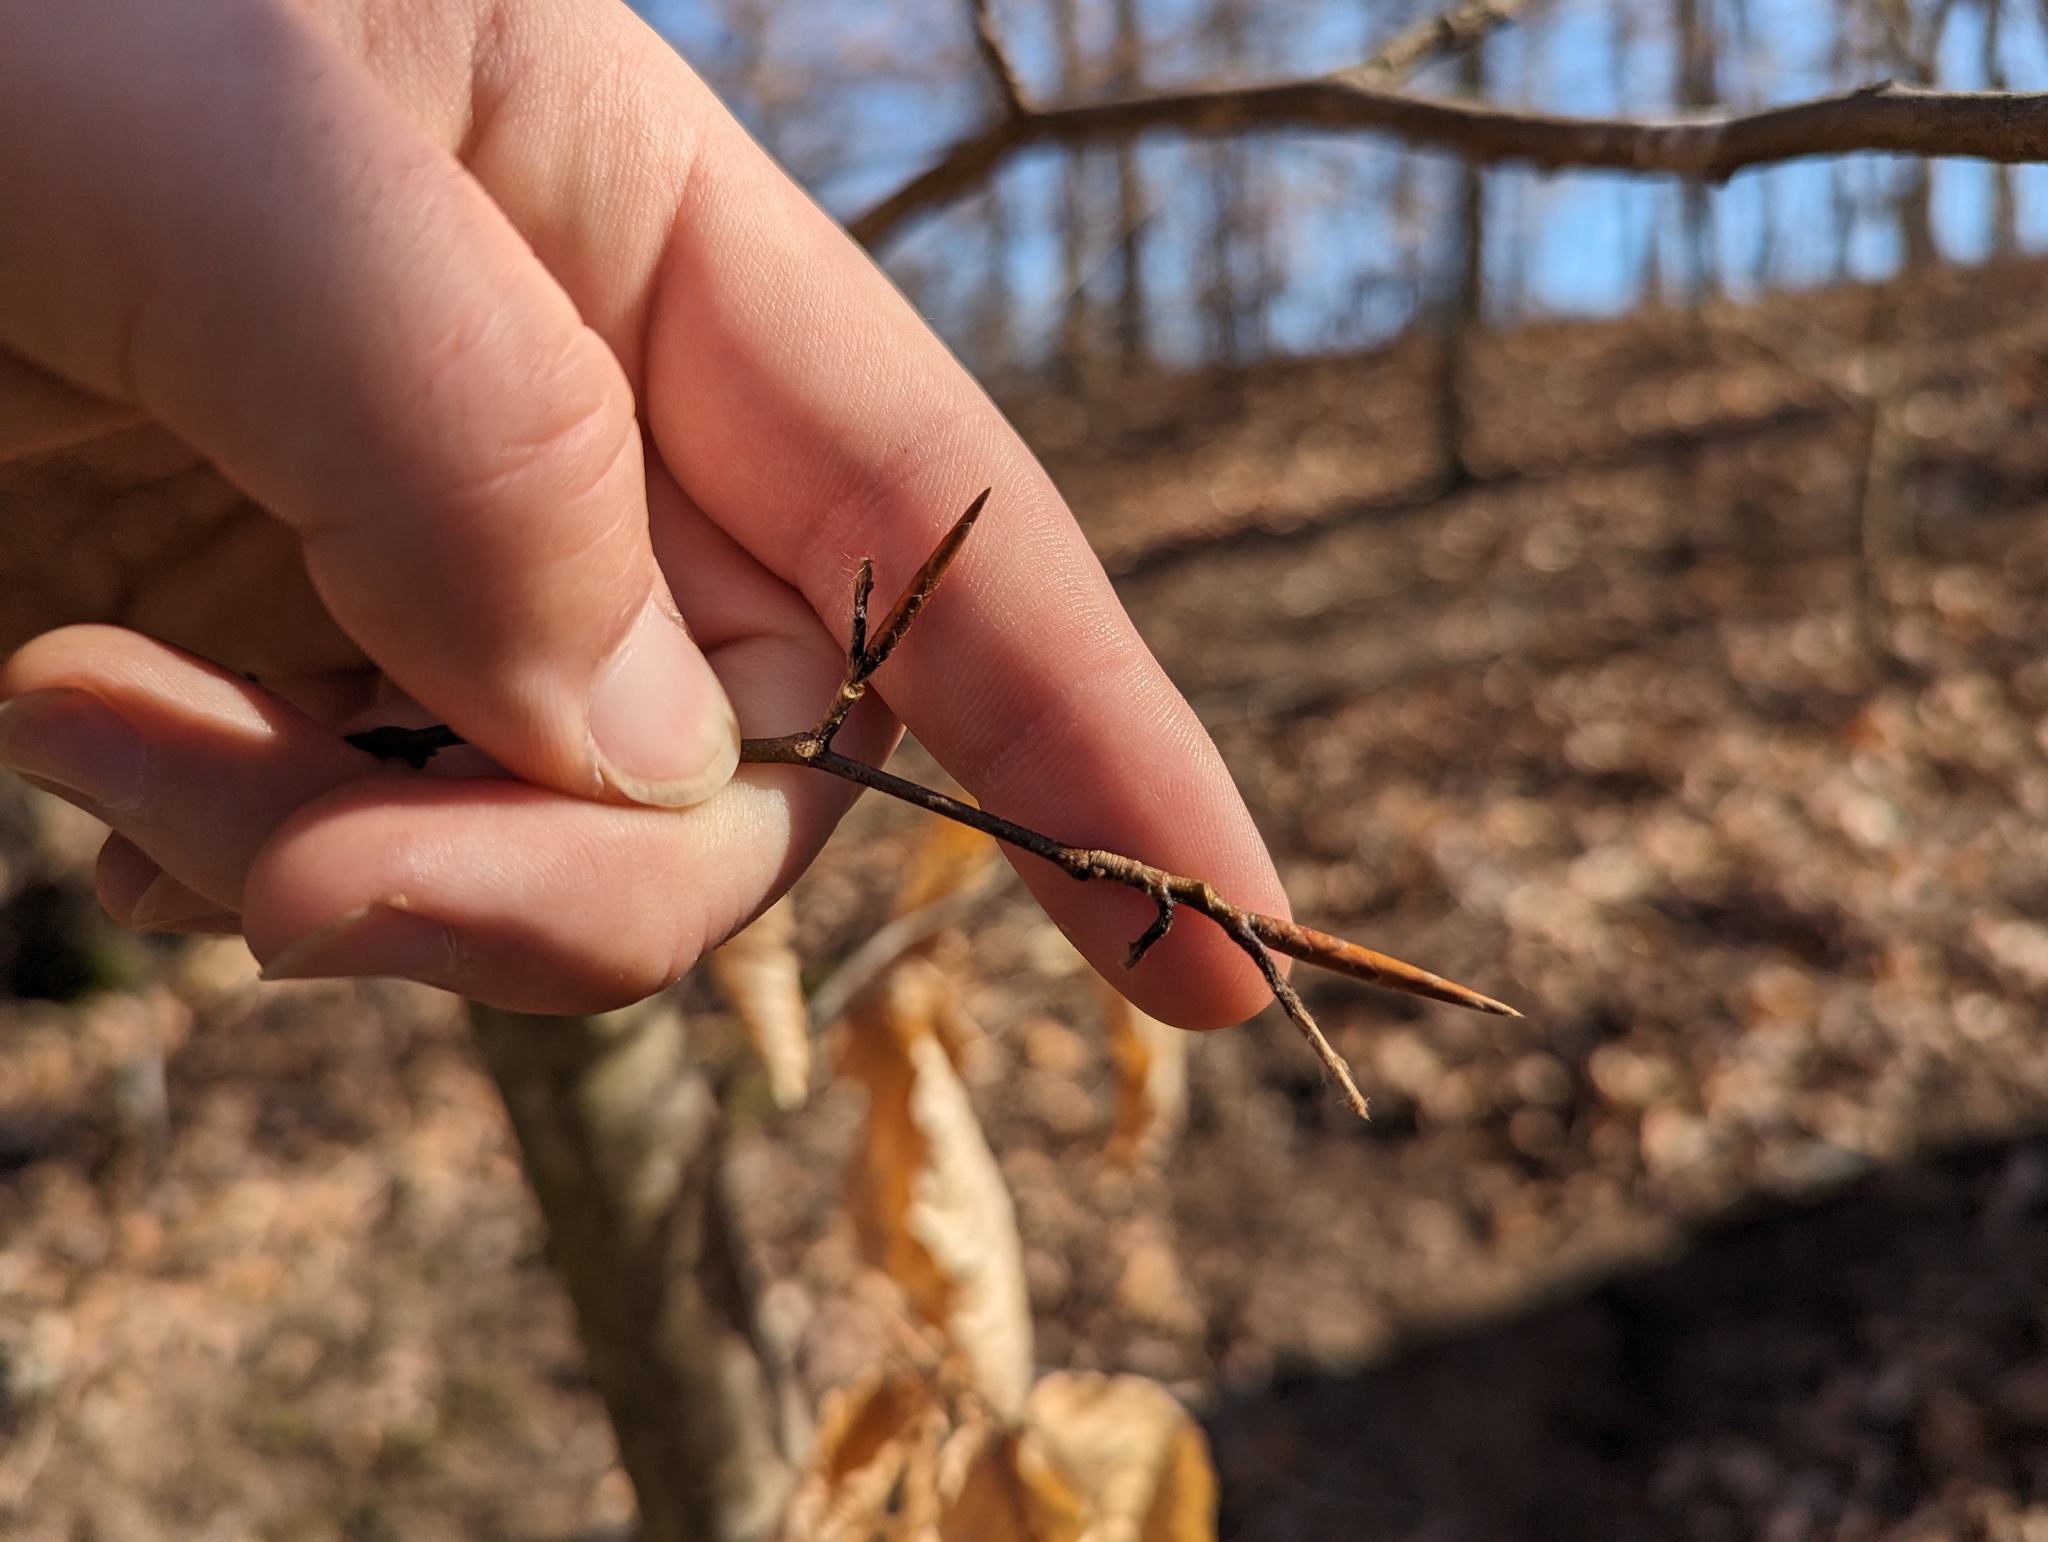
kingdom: Plantae
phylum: Tracheophyta
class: Magnoliopsida
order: Fagales
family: Fagaceae
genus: Fagus
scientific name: Fagus grandifolia
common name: American beech
